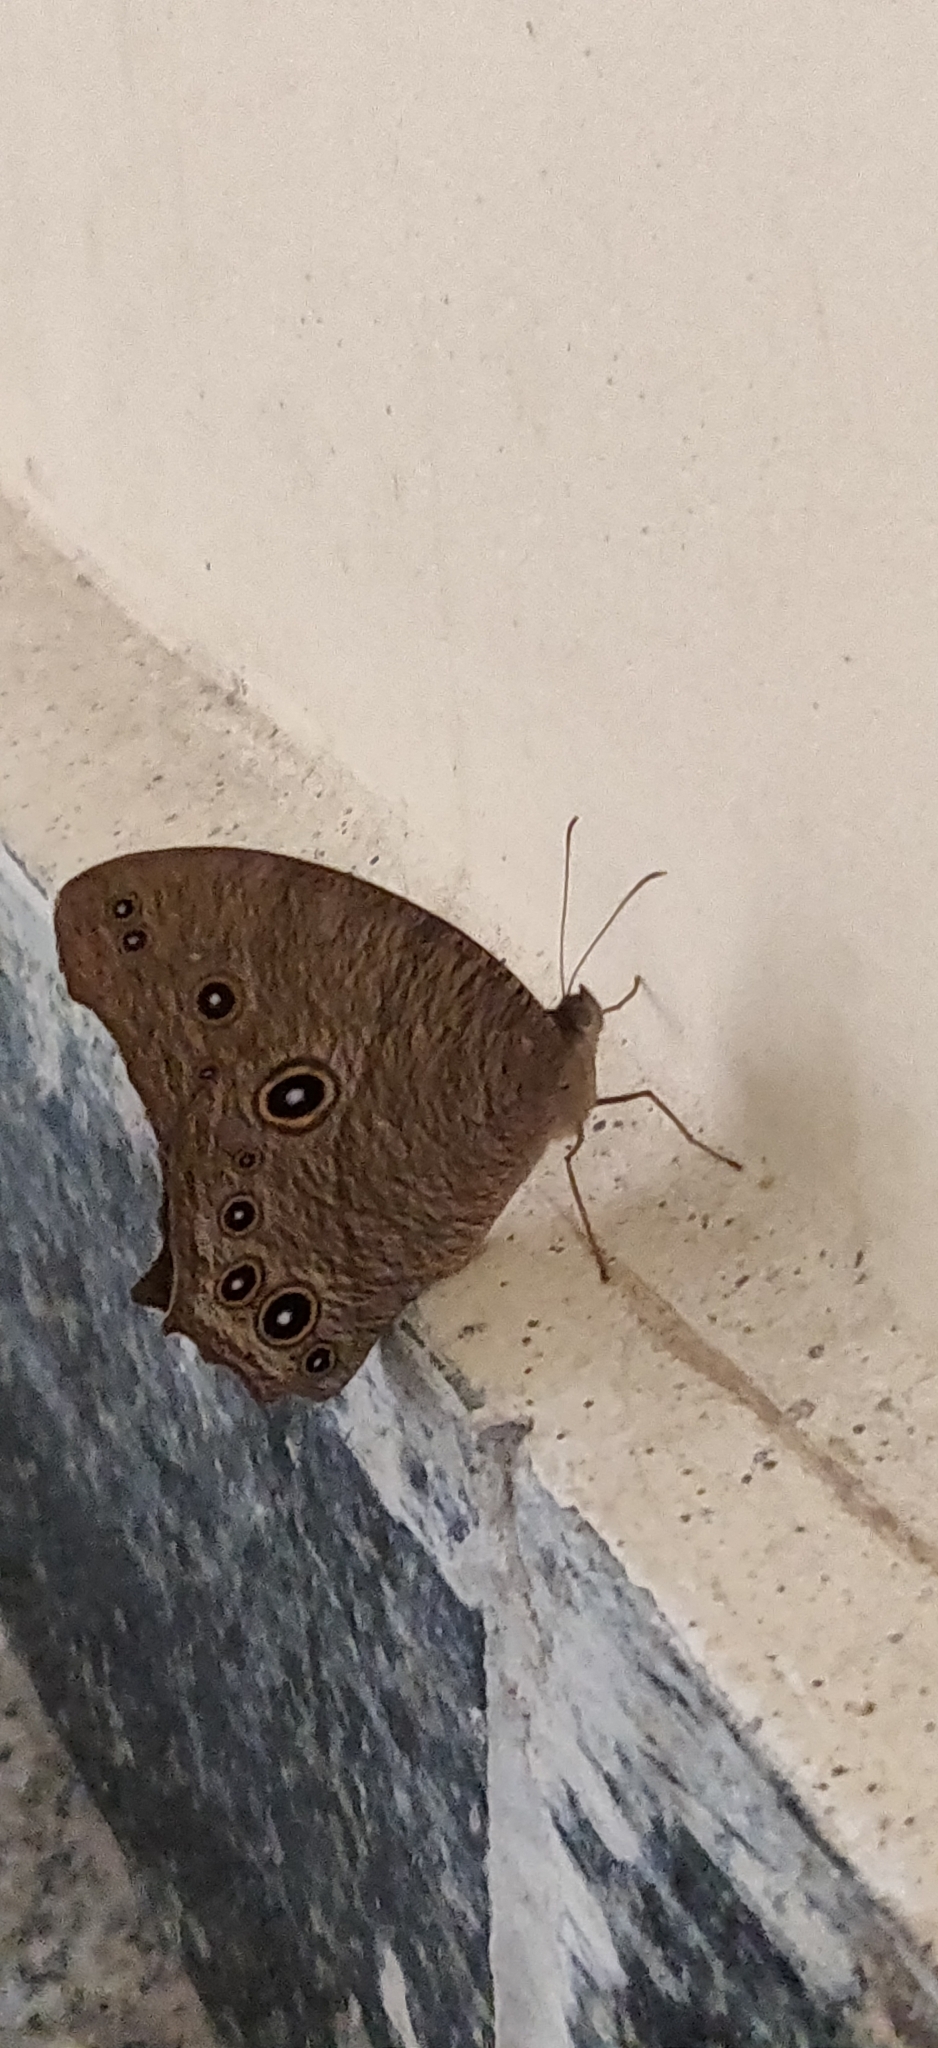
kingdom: Animalia
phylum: Arthropoda
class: Insecta
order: Lepidoptera
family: Nymphalidae
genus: Melanitis
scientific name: Melanitis leda
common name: Twilight brown
